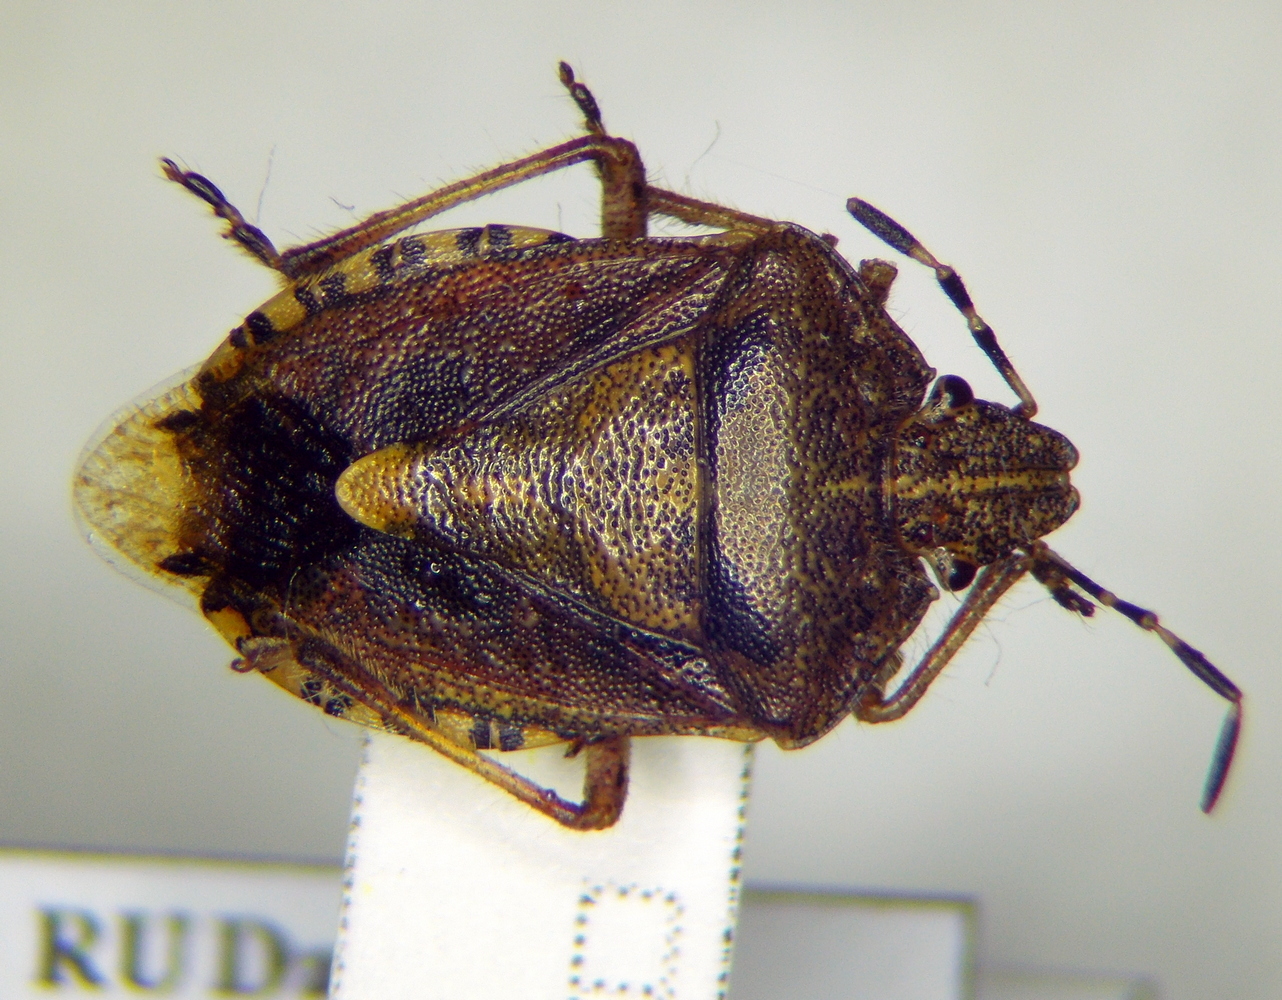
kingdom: Animalia
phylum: Arthropoda
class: Insecta
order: Hemiptera
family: Pentatomidae
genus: Dolycoris
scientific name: Dolycoris baccarum
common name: Sloe bug
